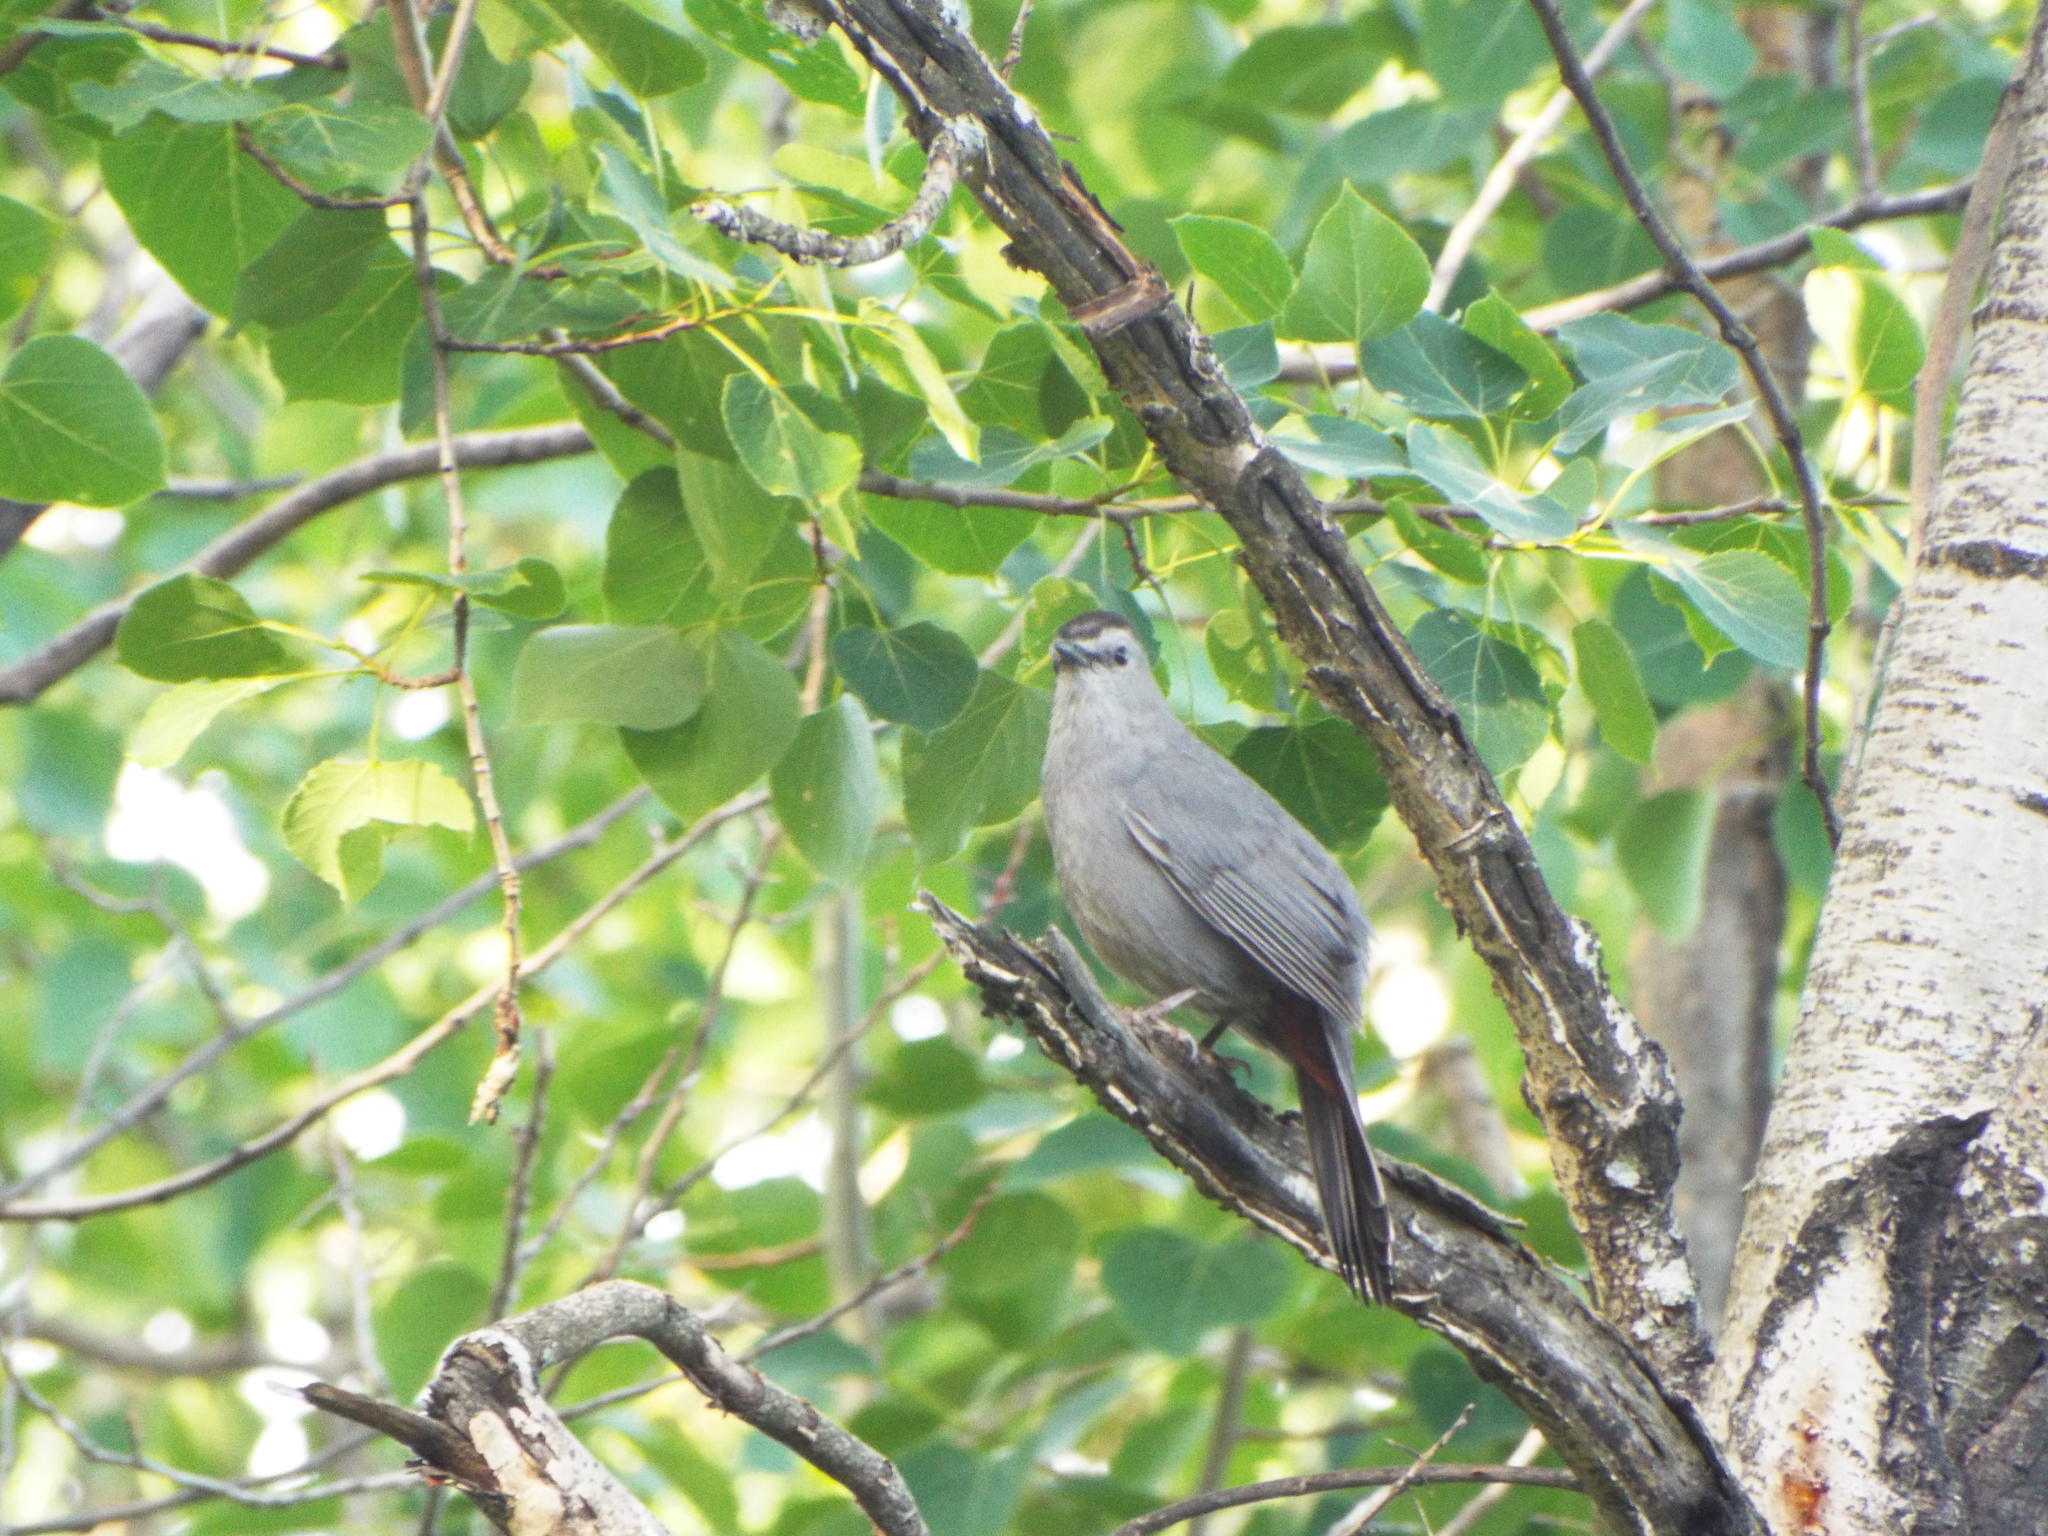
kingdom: Animalia
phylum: Chordata
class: Aves
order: Passeriformes
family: Mimidae
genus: Dumetella
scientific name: Dumetella carolinensis
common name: Gray catbird
